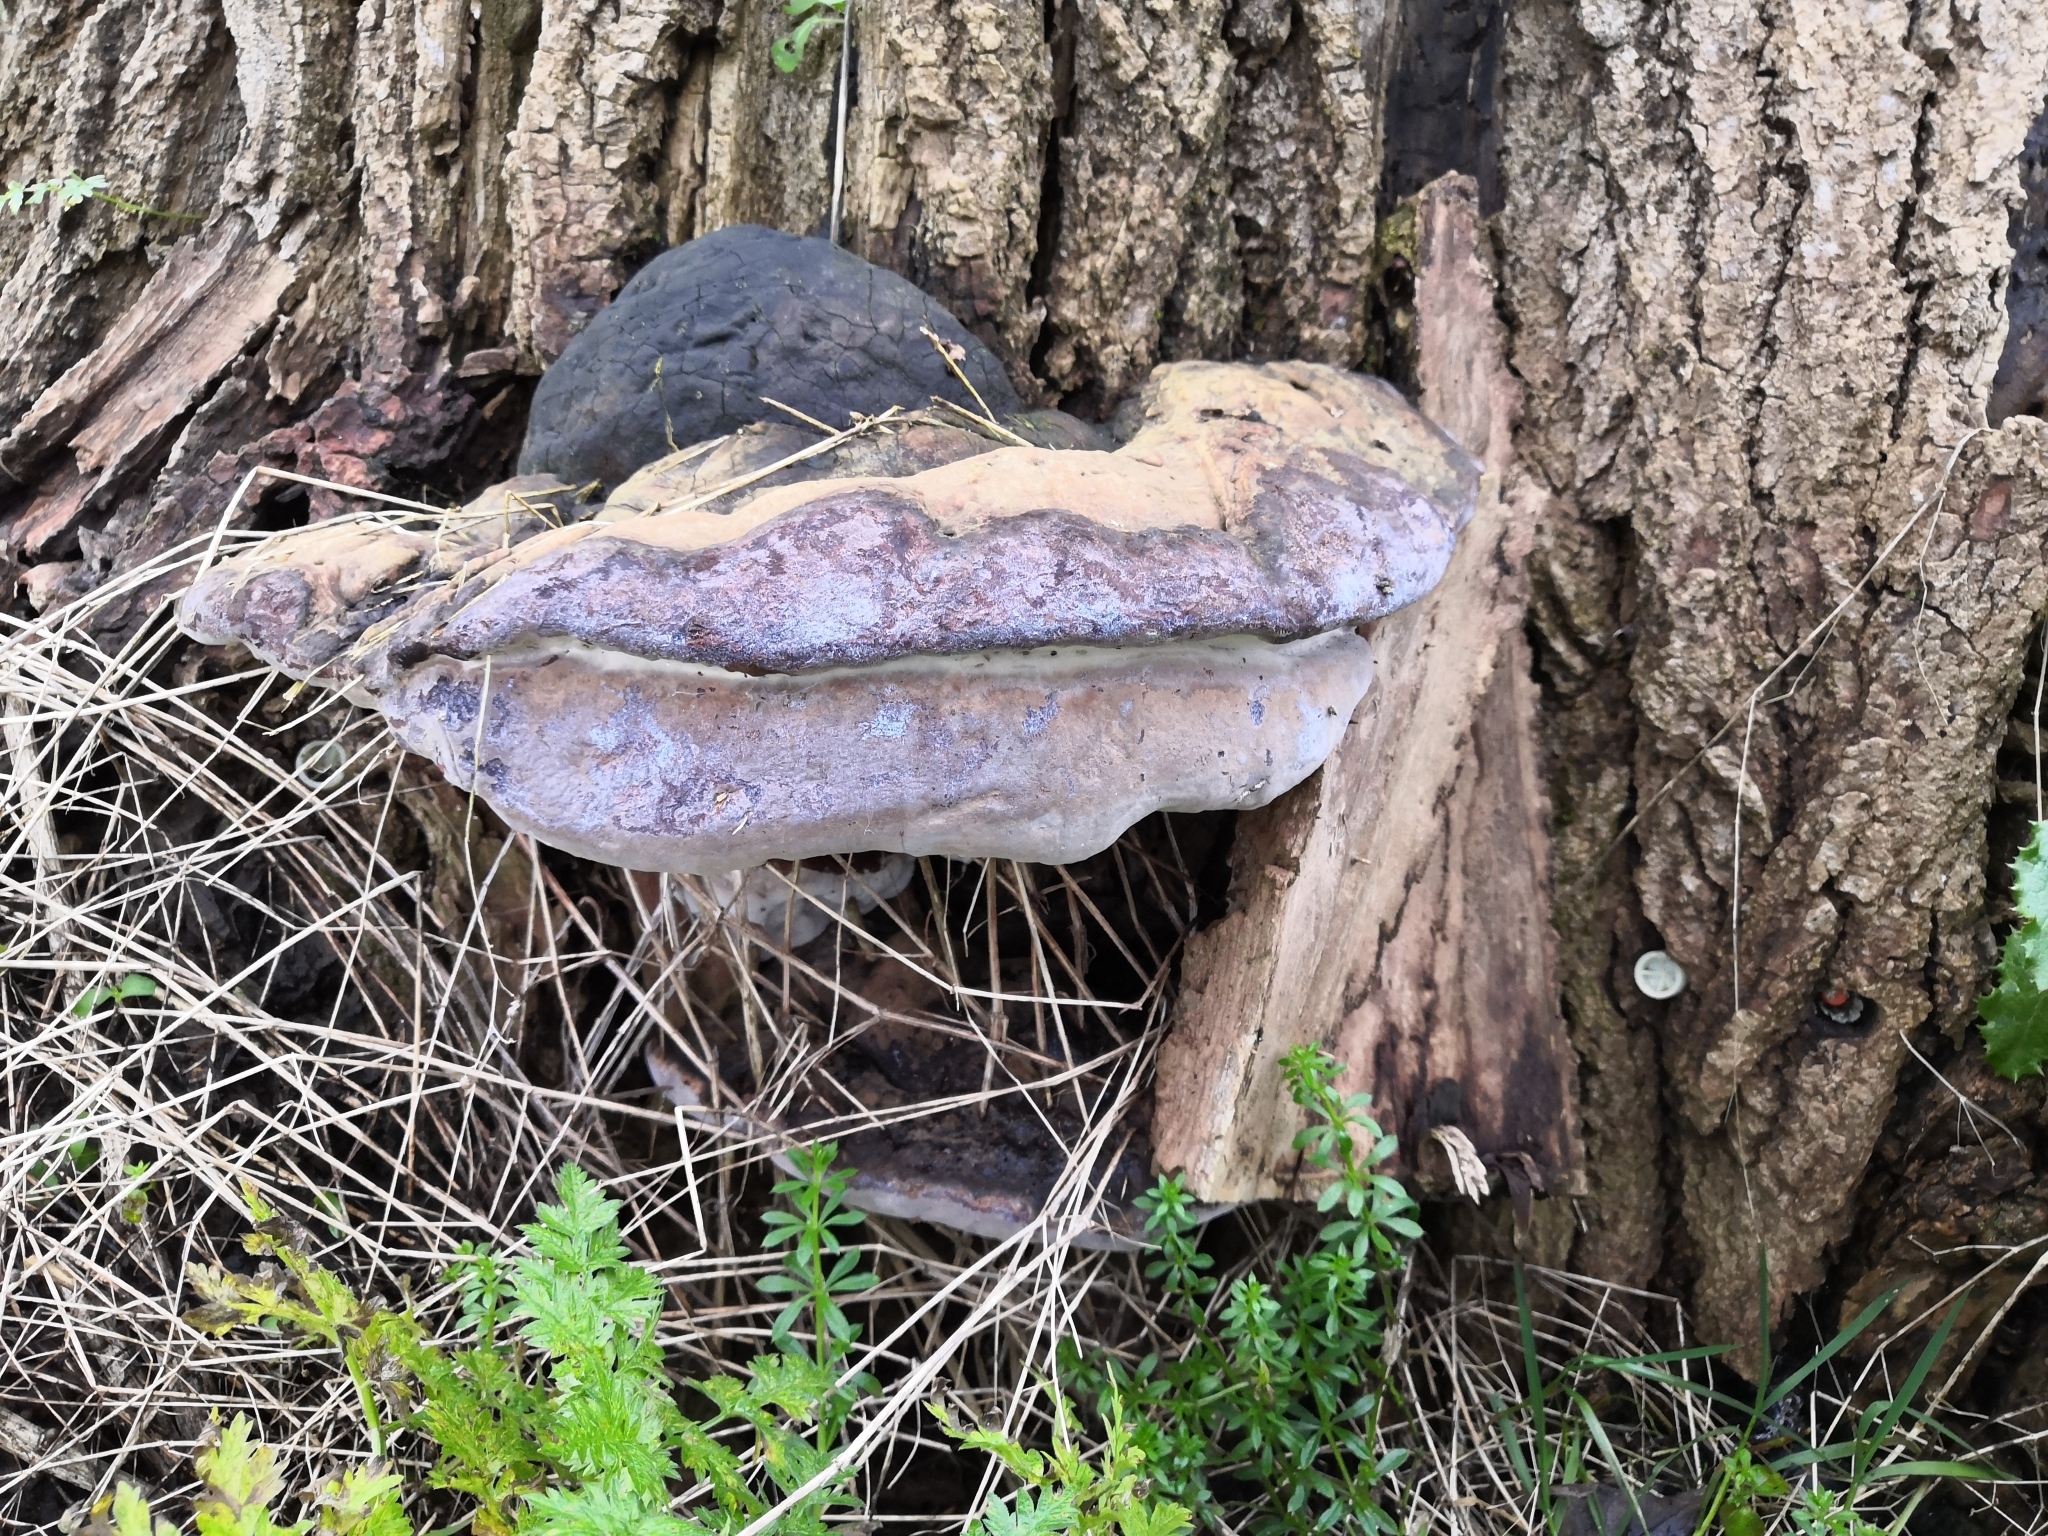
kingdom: Fungi
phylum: Basidiomycota
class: Agaricomycetes
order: Hymenochaetales
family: Hymenochaetaceae
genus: Phellinus
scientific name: Phellinus populicola
